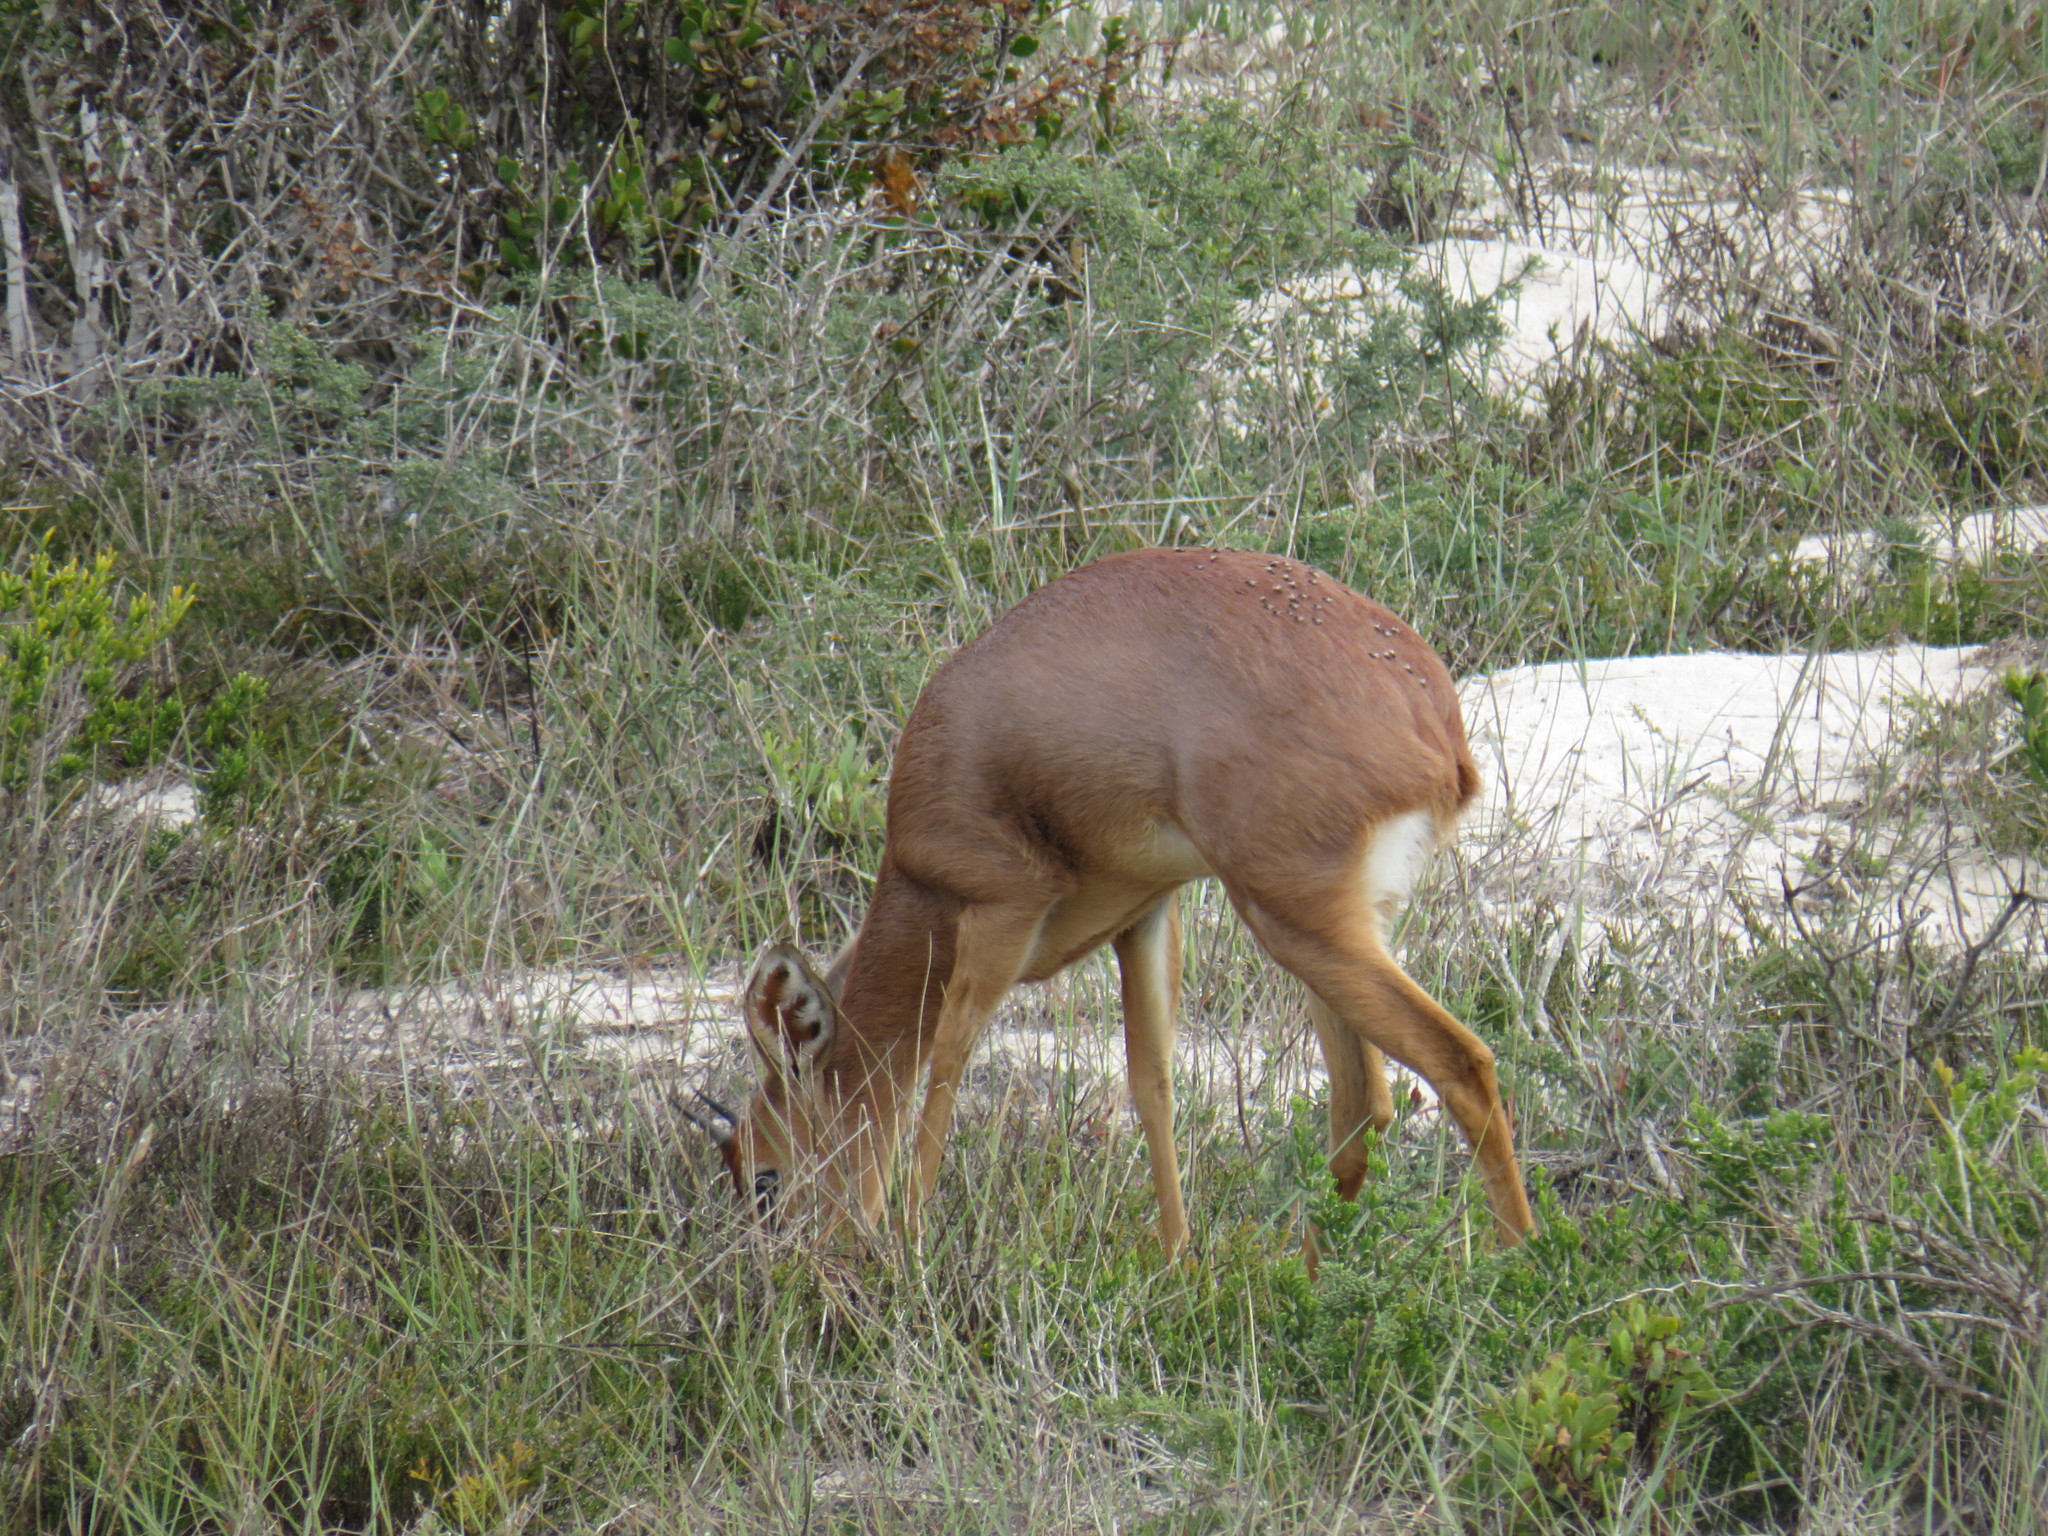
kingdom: Animalia
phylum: Chordata
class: Mammalia
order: Artiodactyla
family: Bovidae
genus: Raphicerus
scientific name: Raphicerus campestris
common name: Steenbok
